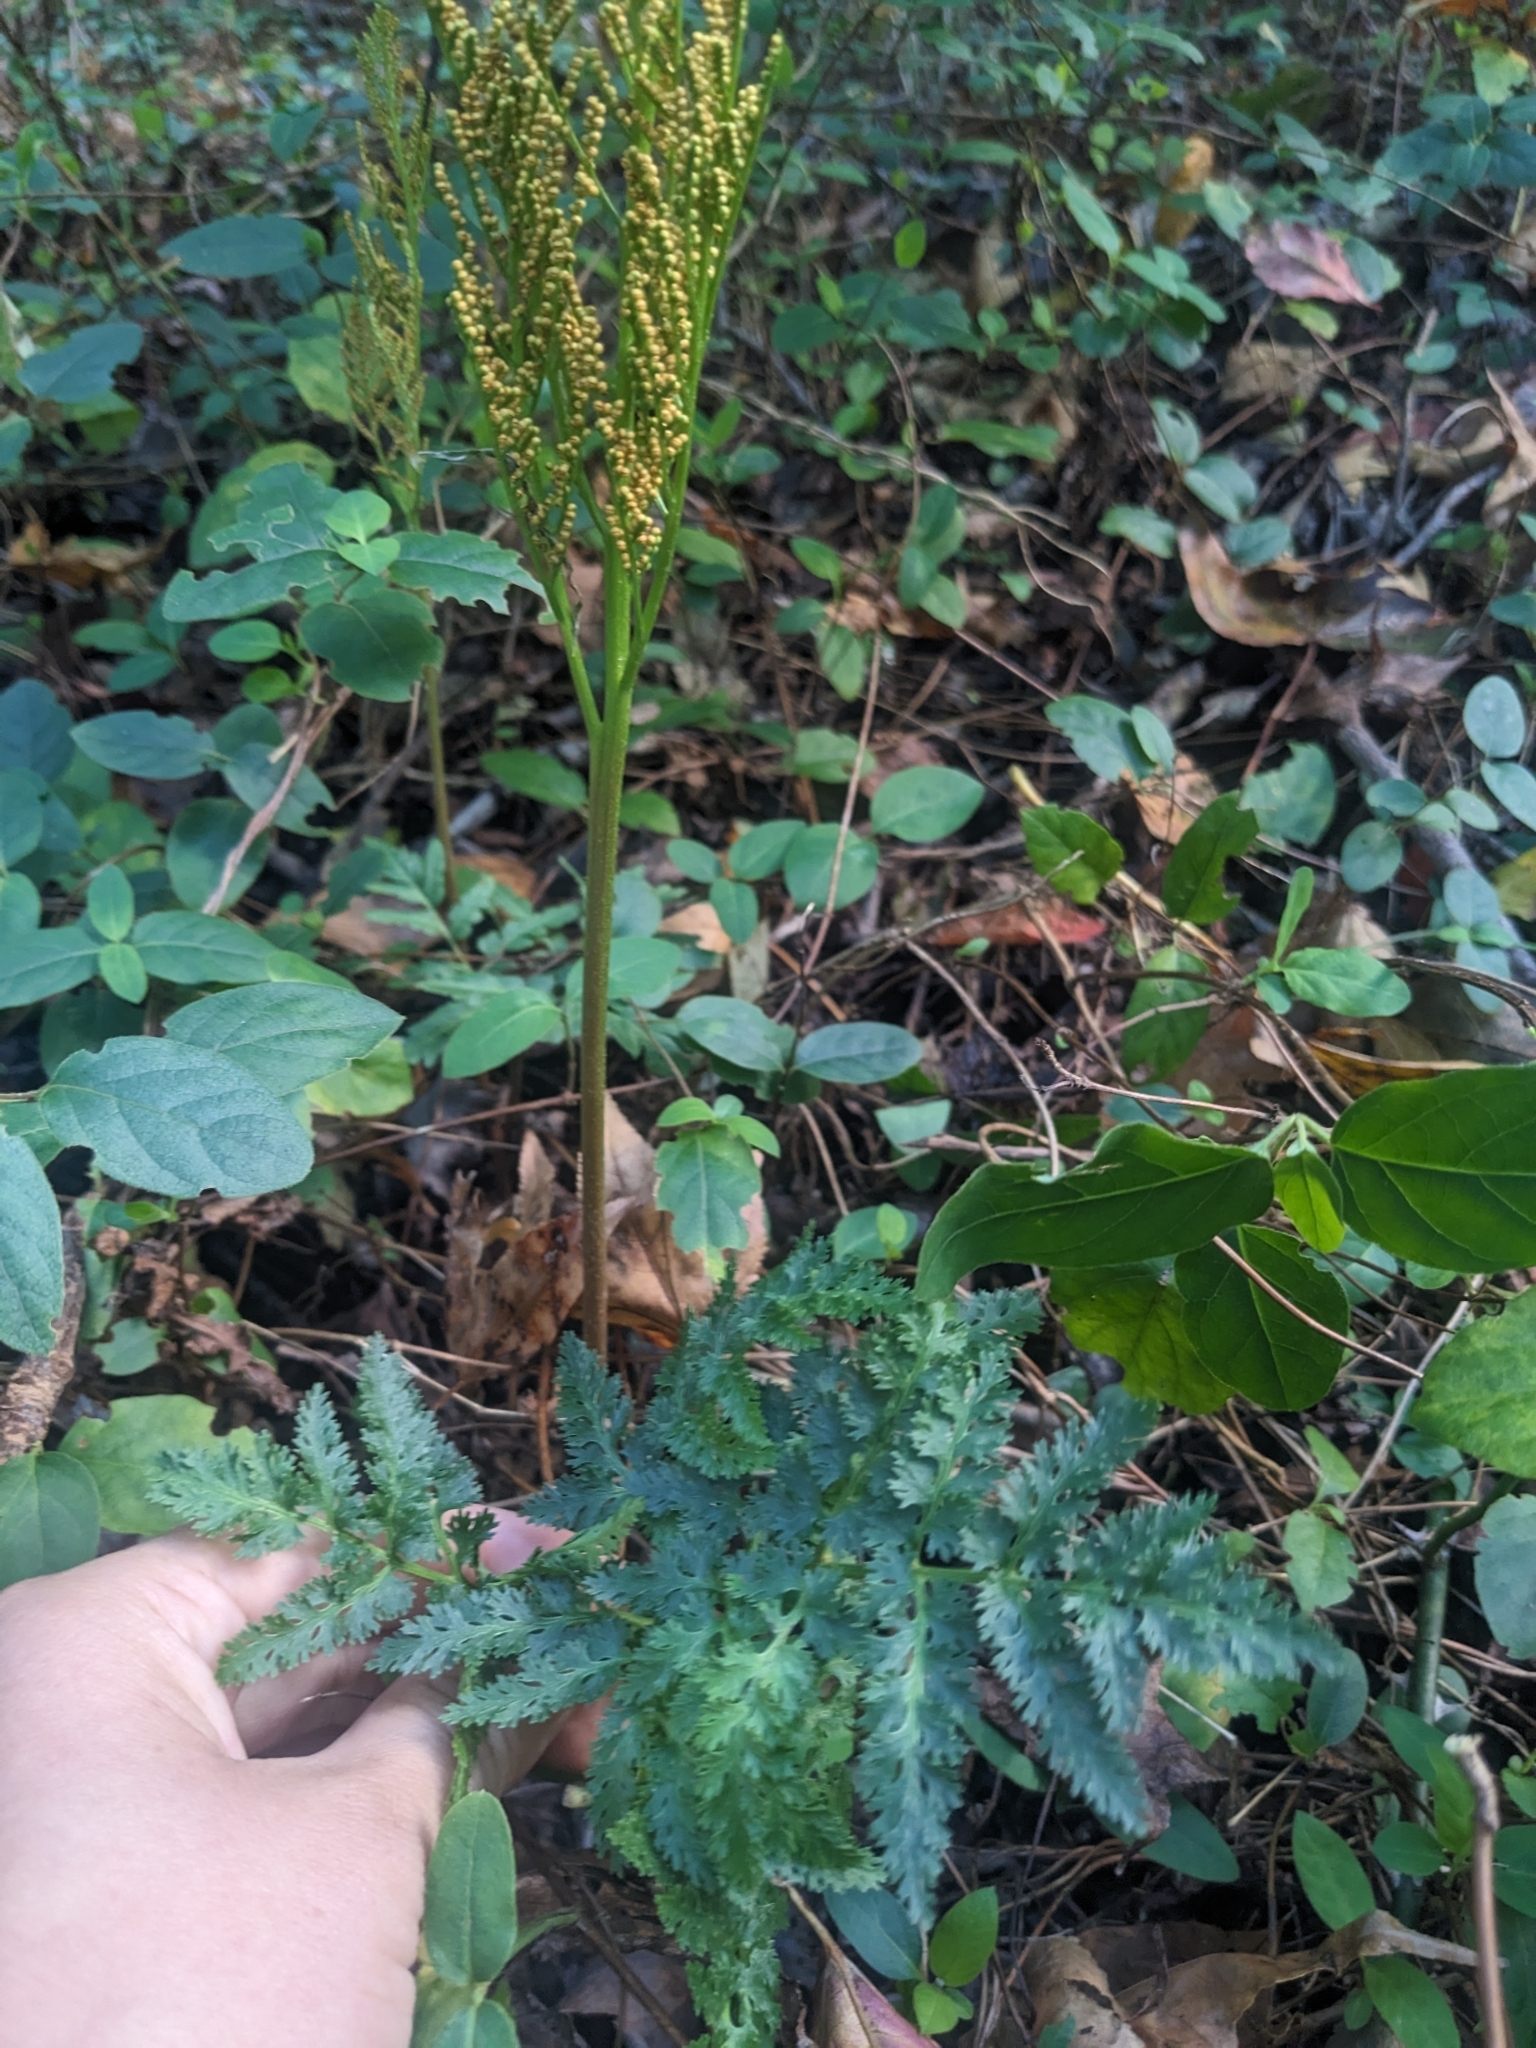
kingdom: Plantae
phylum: Tracheophyta
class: Polypodiopsida
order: Ophioglossales
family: Ophioglossaceae
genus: Sceptridium
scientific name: Sceptridium dissectum
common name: Cut-leaved grapefern
